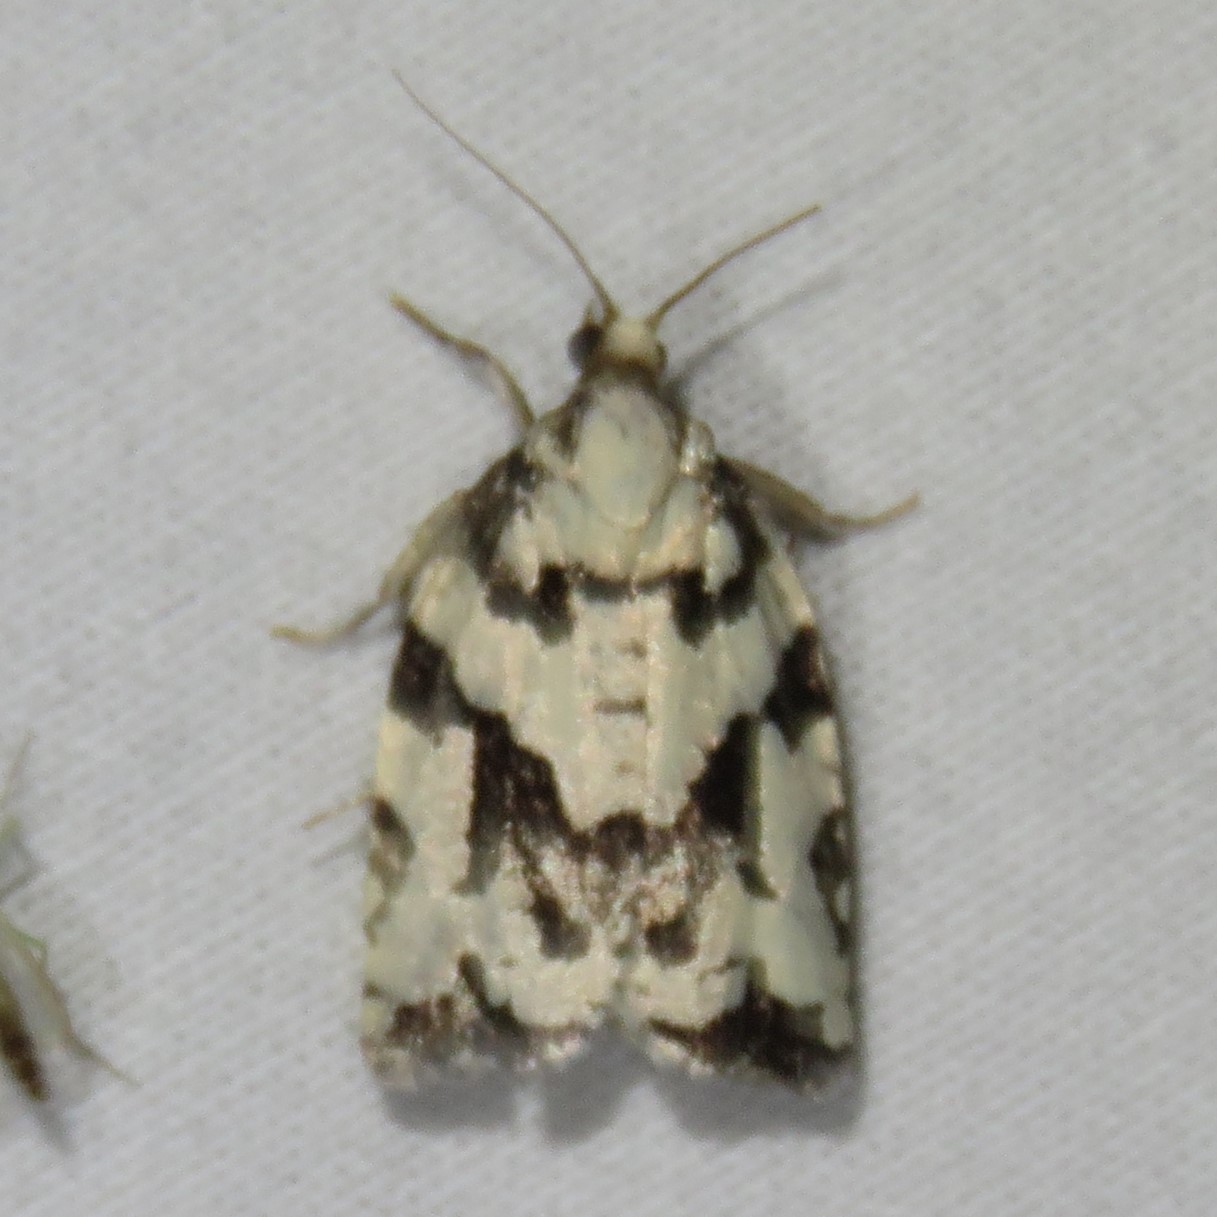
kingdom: Animalia
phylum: Arthropoda
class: Insecta
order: Lepidoptera
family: Tortricidae
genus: Archips
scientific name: Archips dissitana
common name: Boldly-marked archips moth
